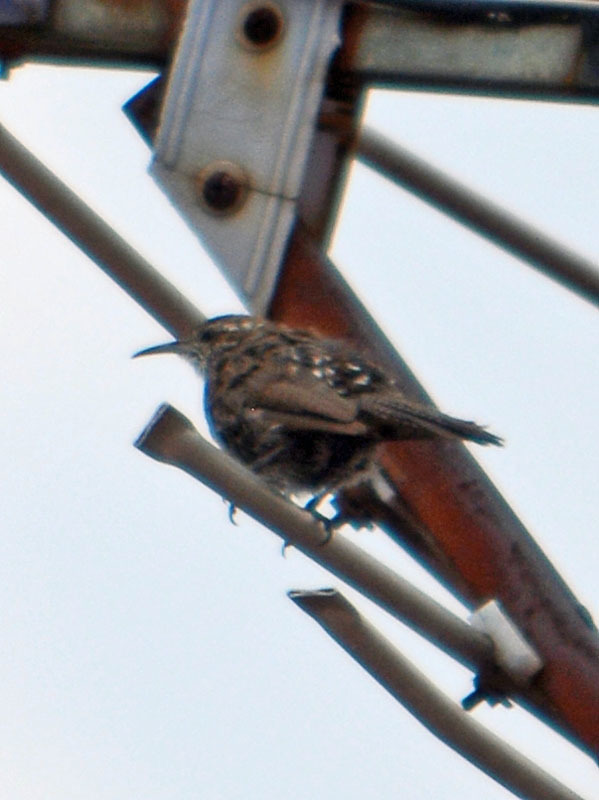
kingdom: Animalia
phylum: Chordata
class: Aves
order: Passeriformes
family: Troglodytidae
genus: Thryomanes
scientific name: Thryomanes bewickii
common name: Bewick's wren
